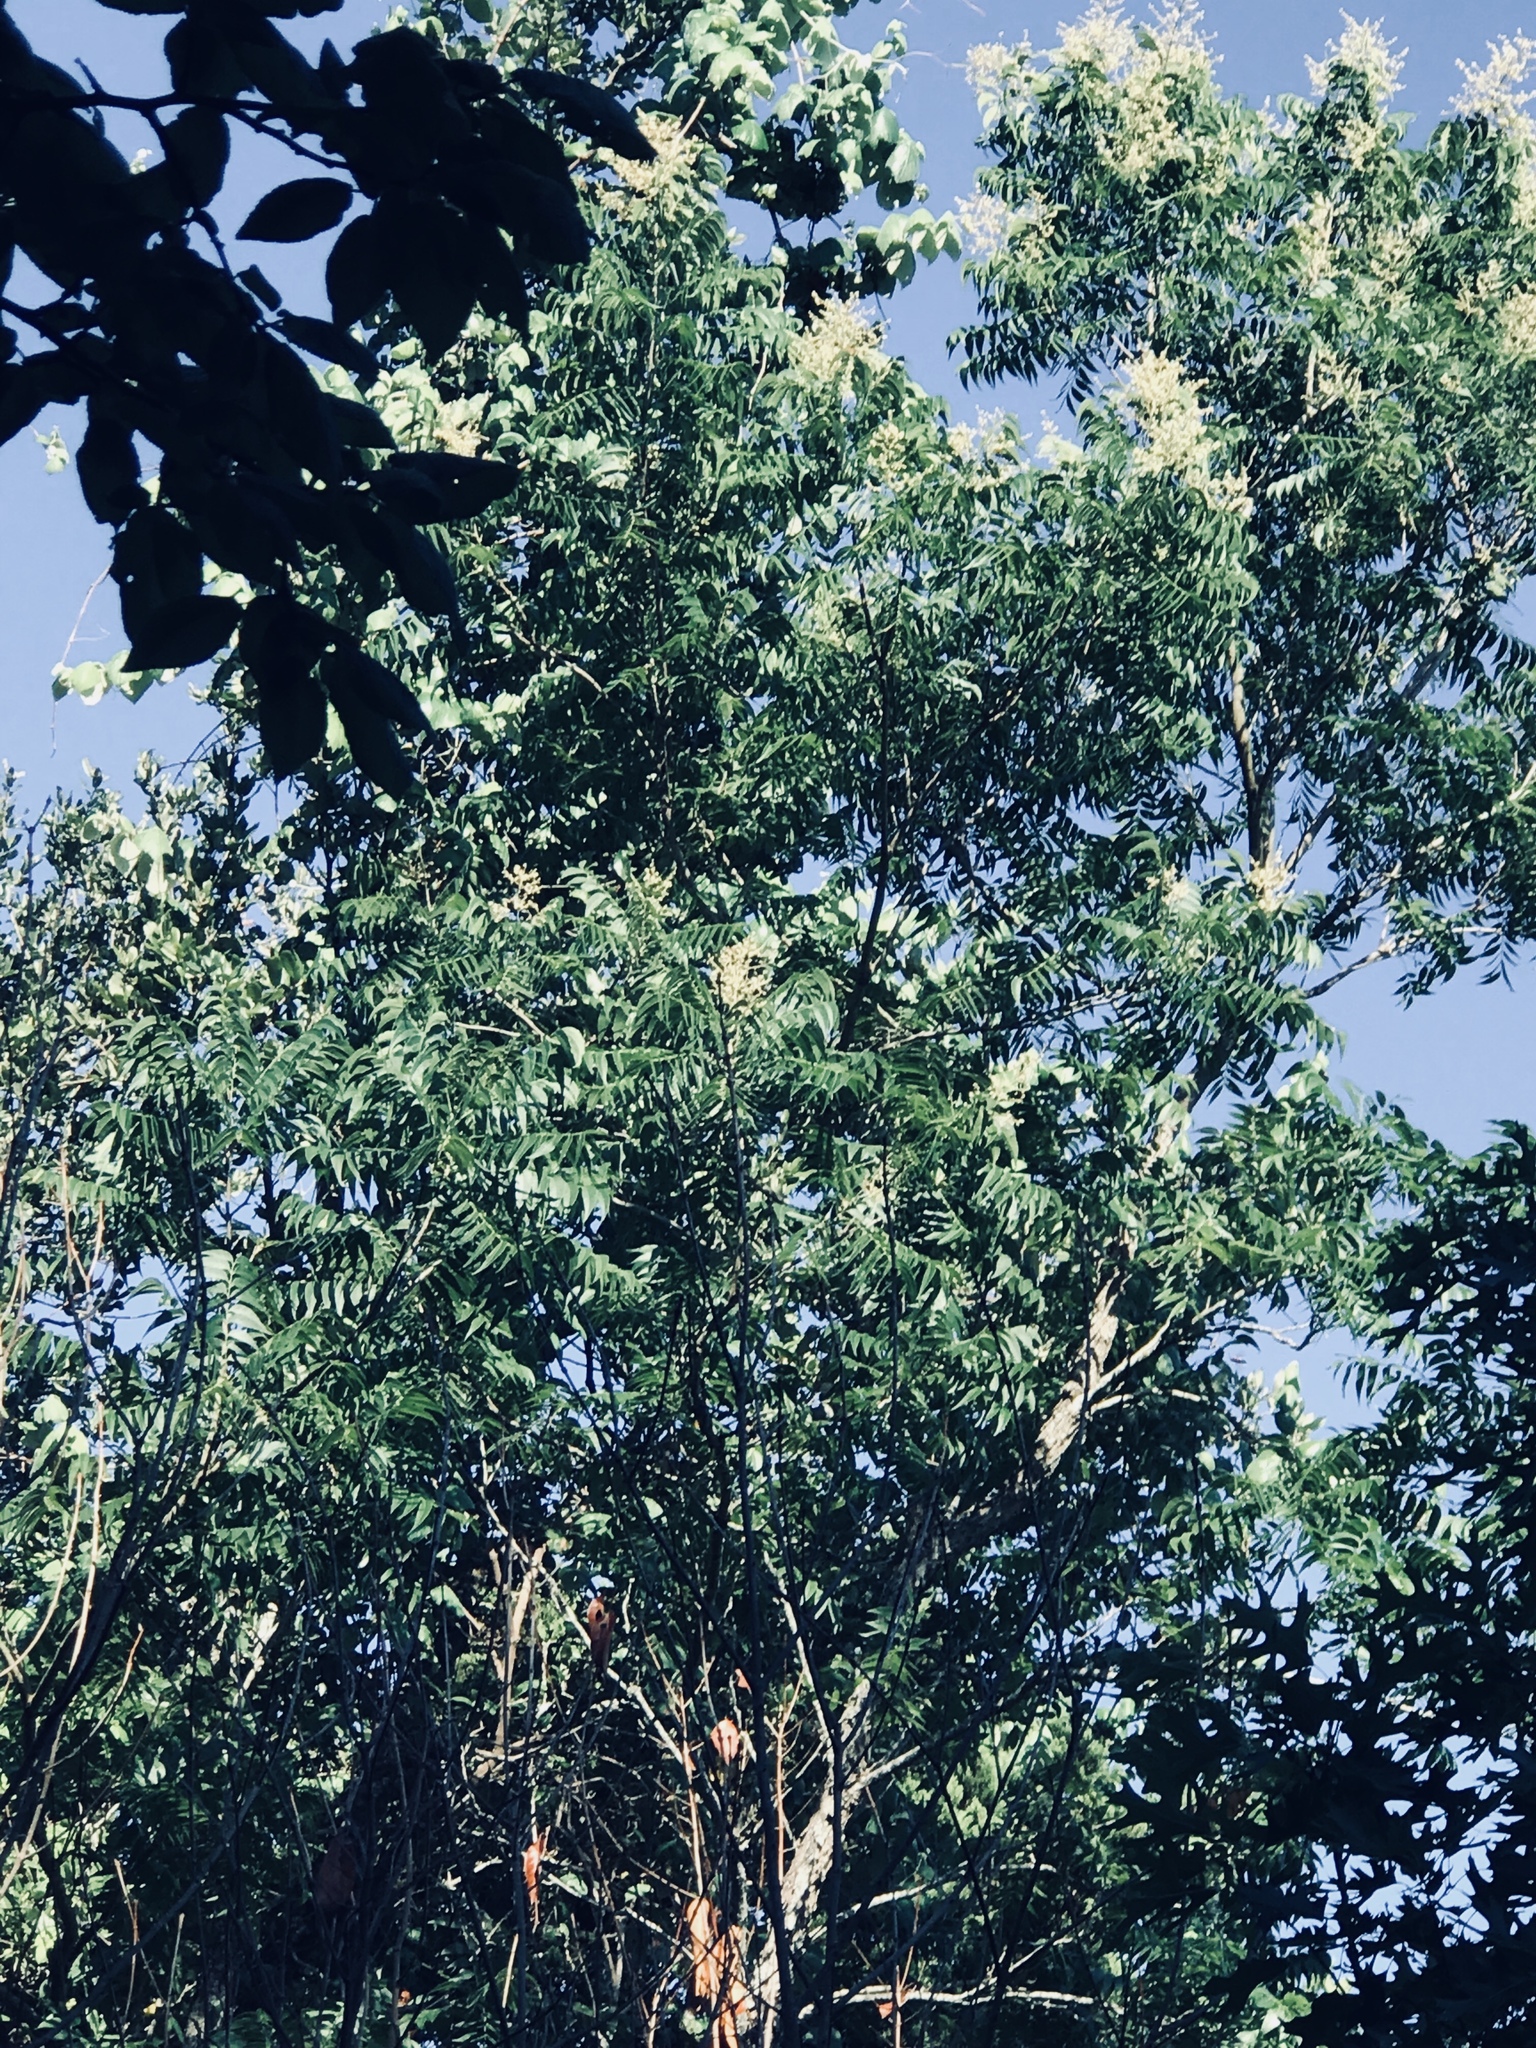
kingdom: Plantae
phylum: Tracheophyta
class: Magnoliopsida
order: Sapindales
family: Sapindaceae
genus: Sapindus
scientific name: Sapindus drummondii
